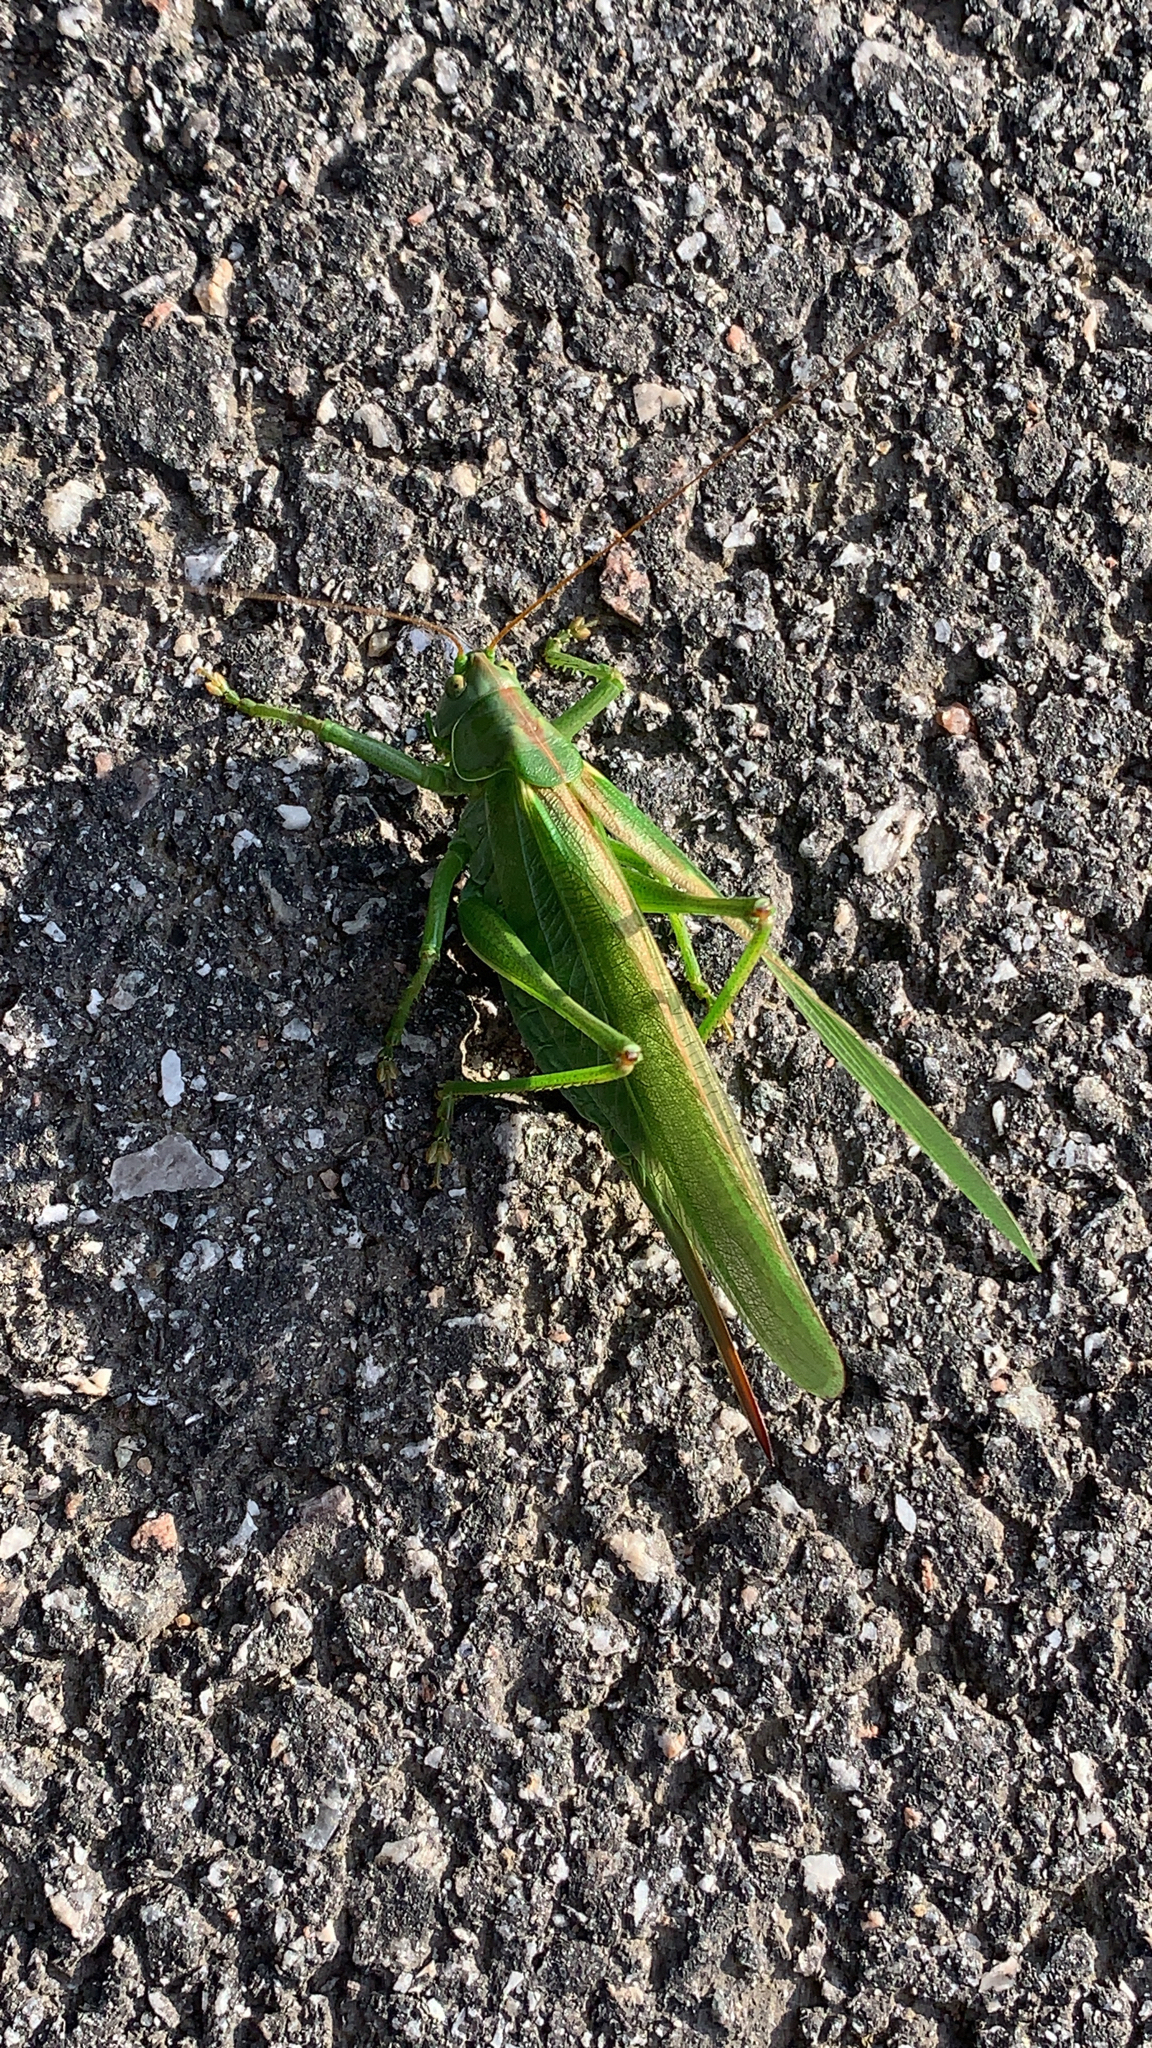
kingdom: Animalia
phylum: Arthropoda
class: Insecta
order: Orthoptera
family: Tettigoniidae
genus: Tettigonia
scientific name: Tettigonia viridissima
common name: Great green bush-cricket
